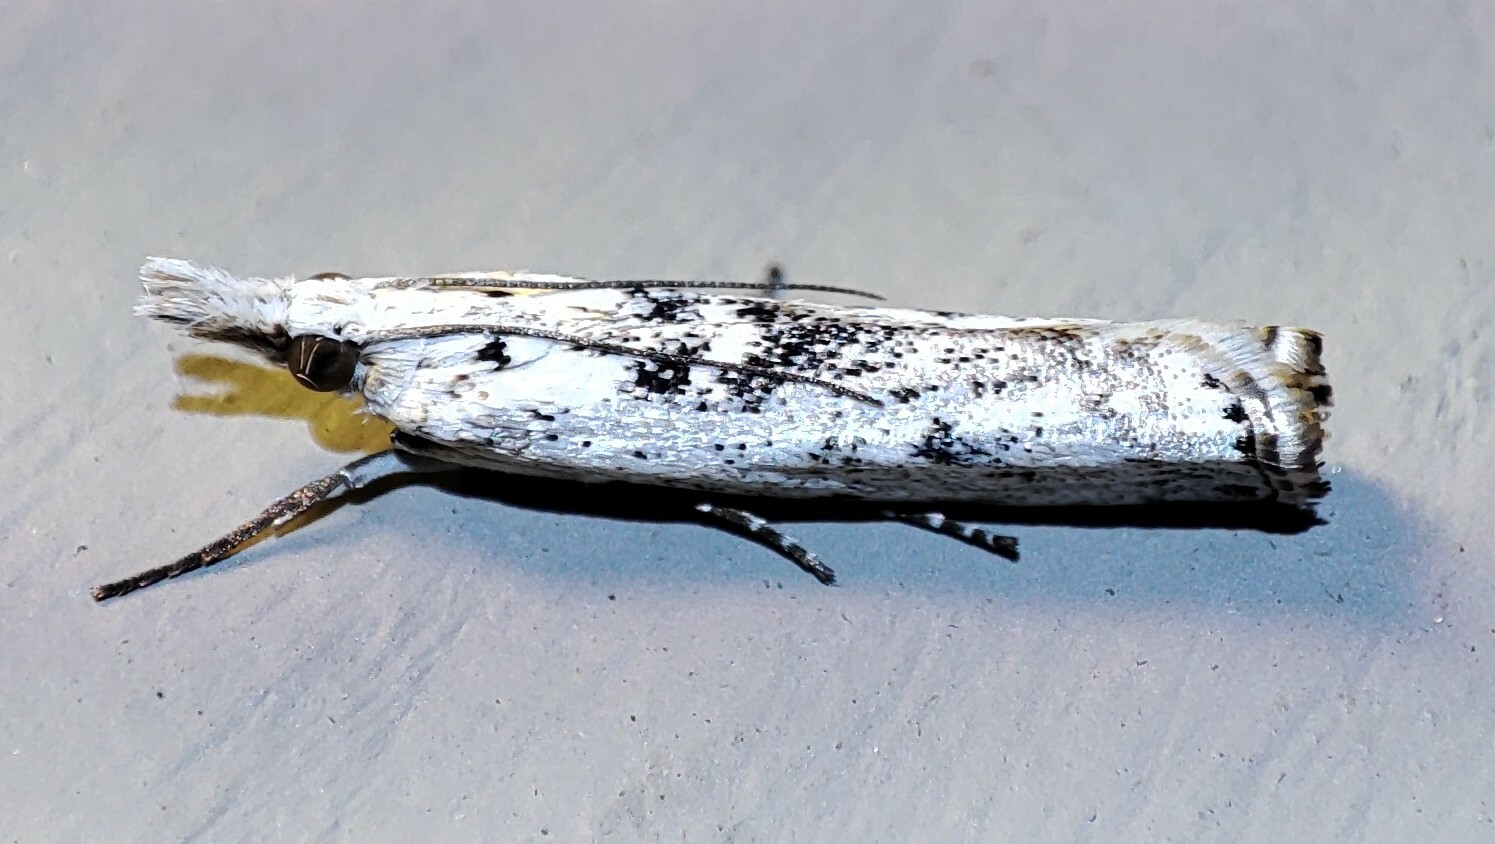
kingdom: Animalia
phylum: Arthropoda
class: Insecta
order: Lepidoptera
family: Crambidae
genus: Crambus
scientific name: Crambus sparsellus
